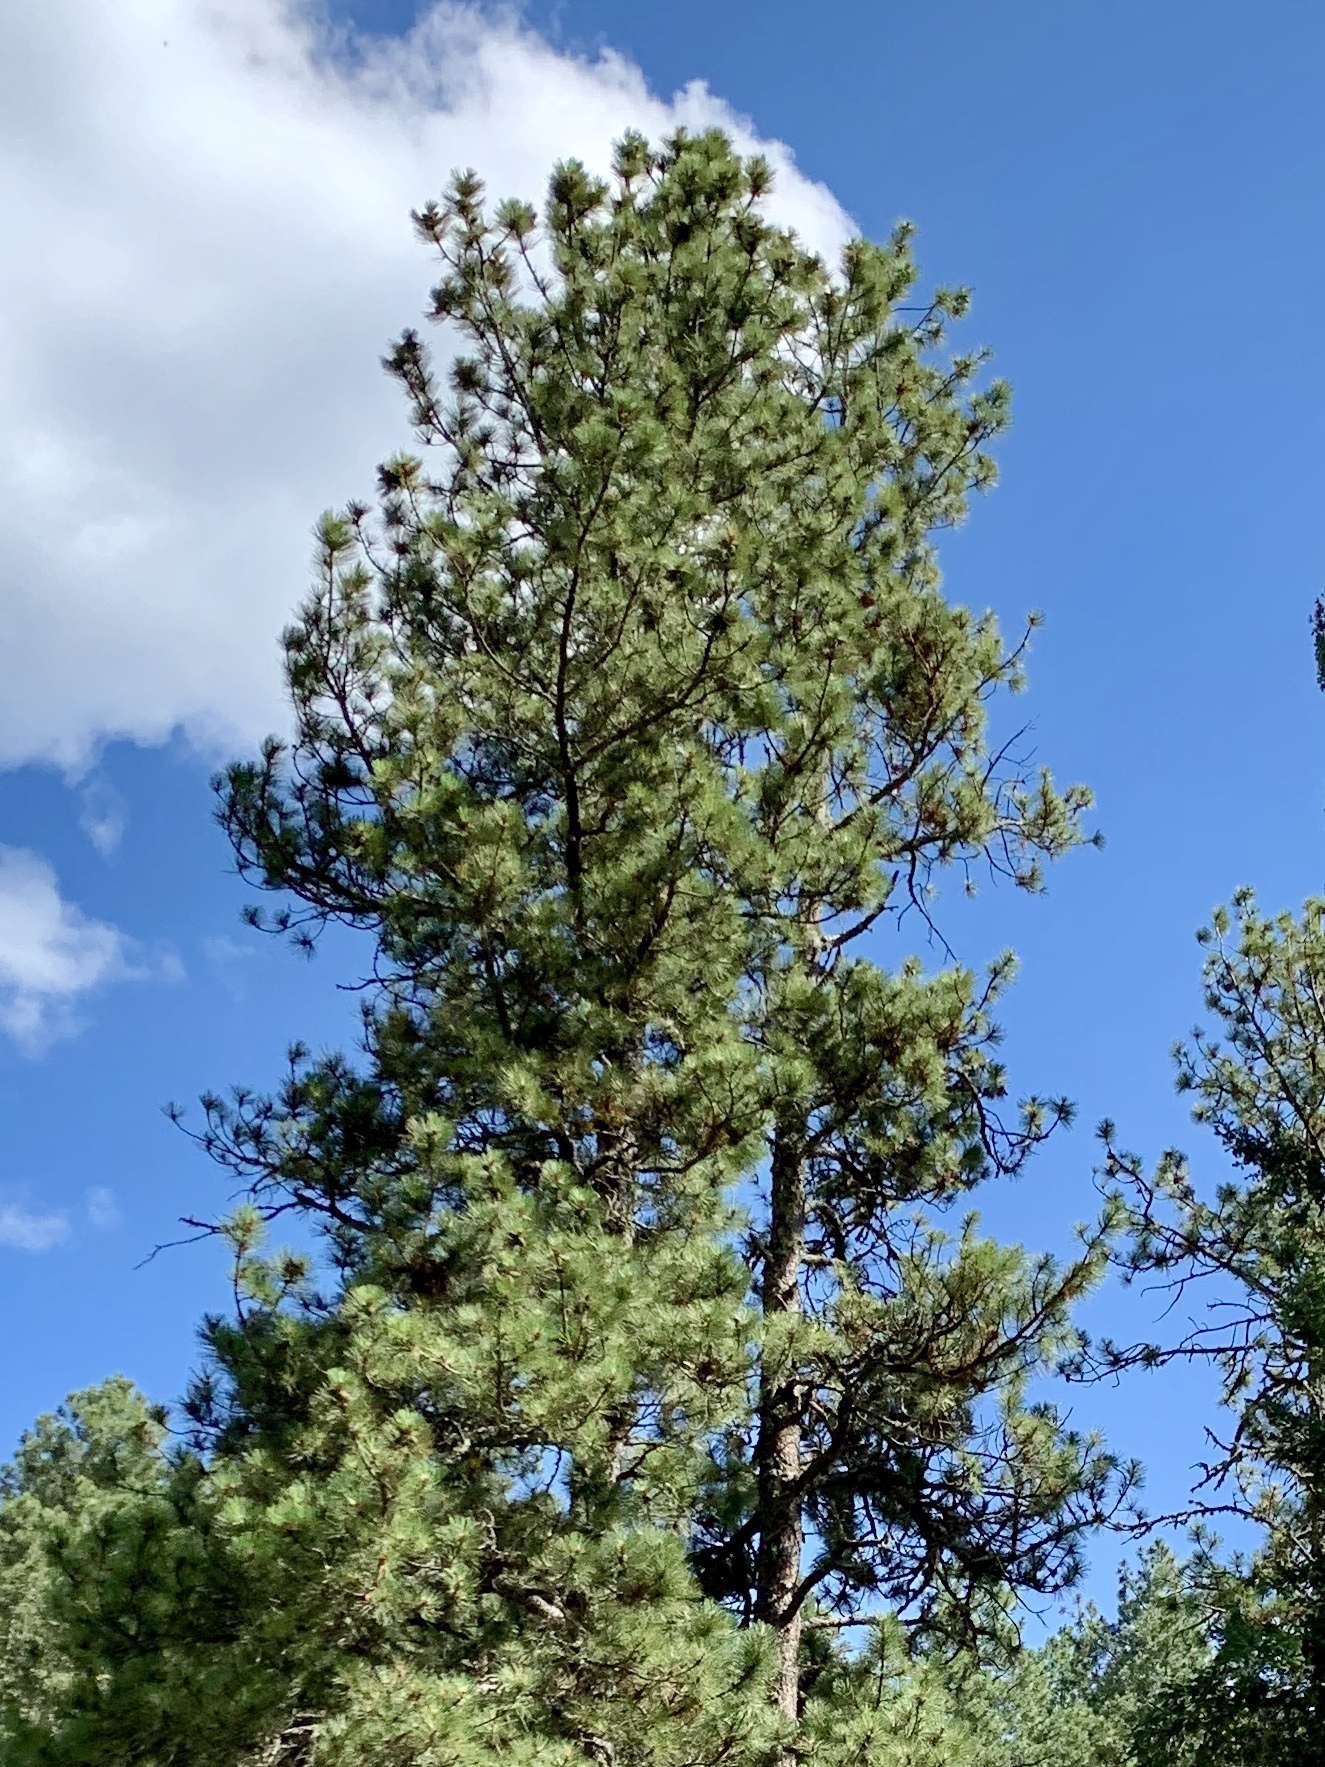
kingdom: Plantae
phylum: Tracheophyta
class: Pinopsida
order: Pinales
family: Pinaceae
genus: Pinus
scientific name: Pinus ponderosa
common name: Western yellow-pine
